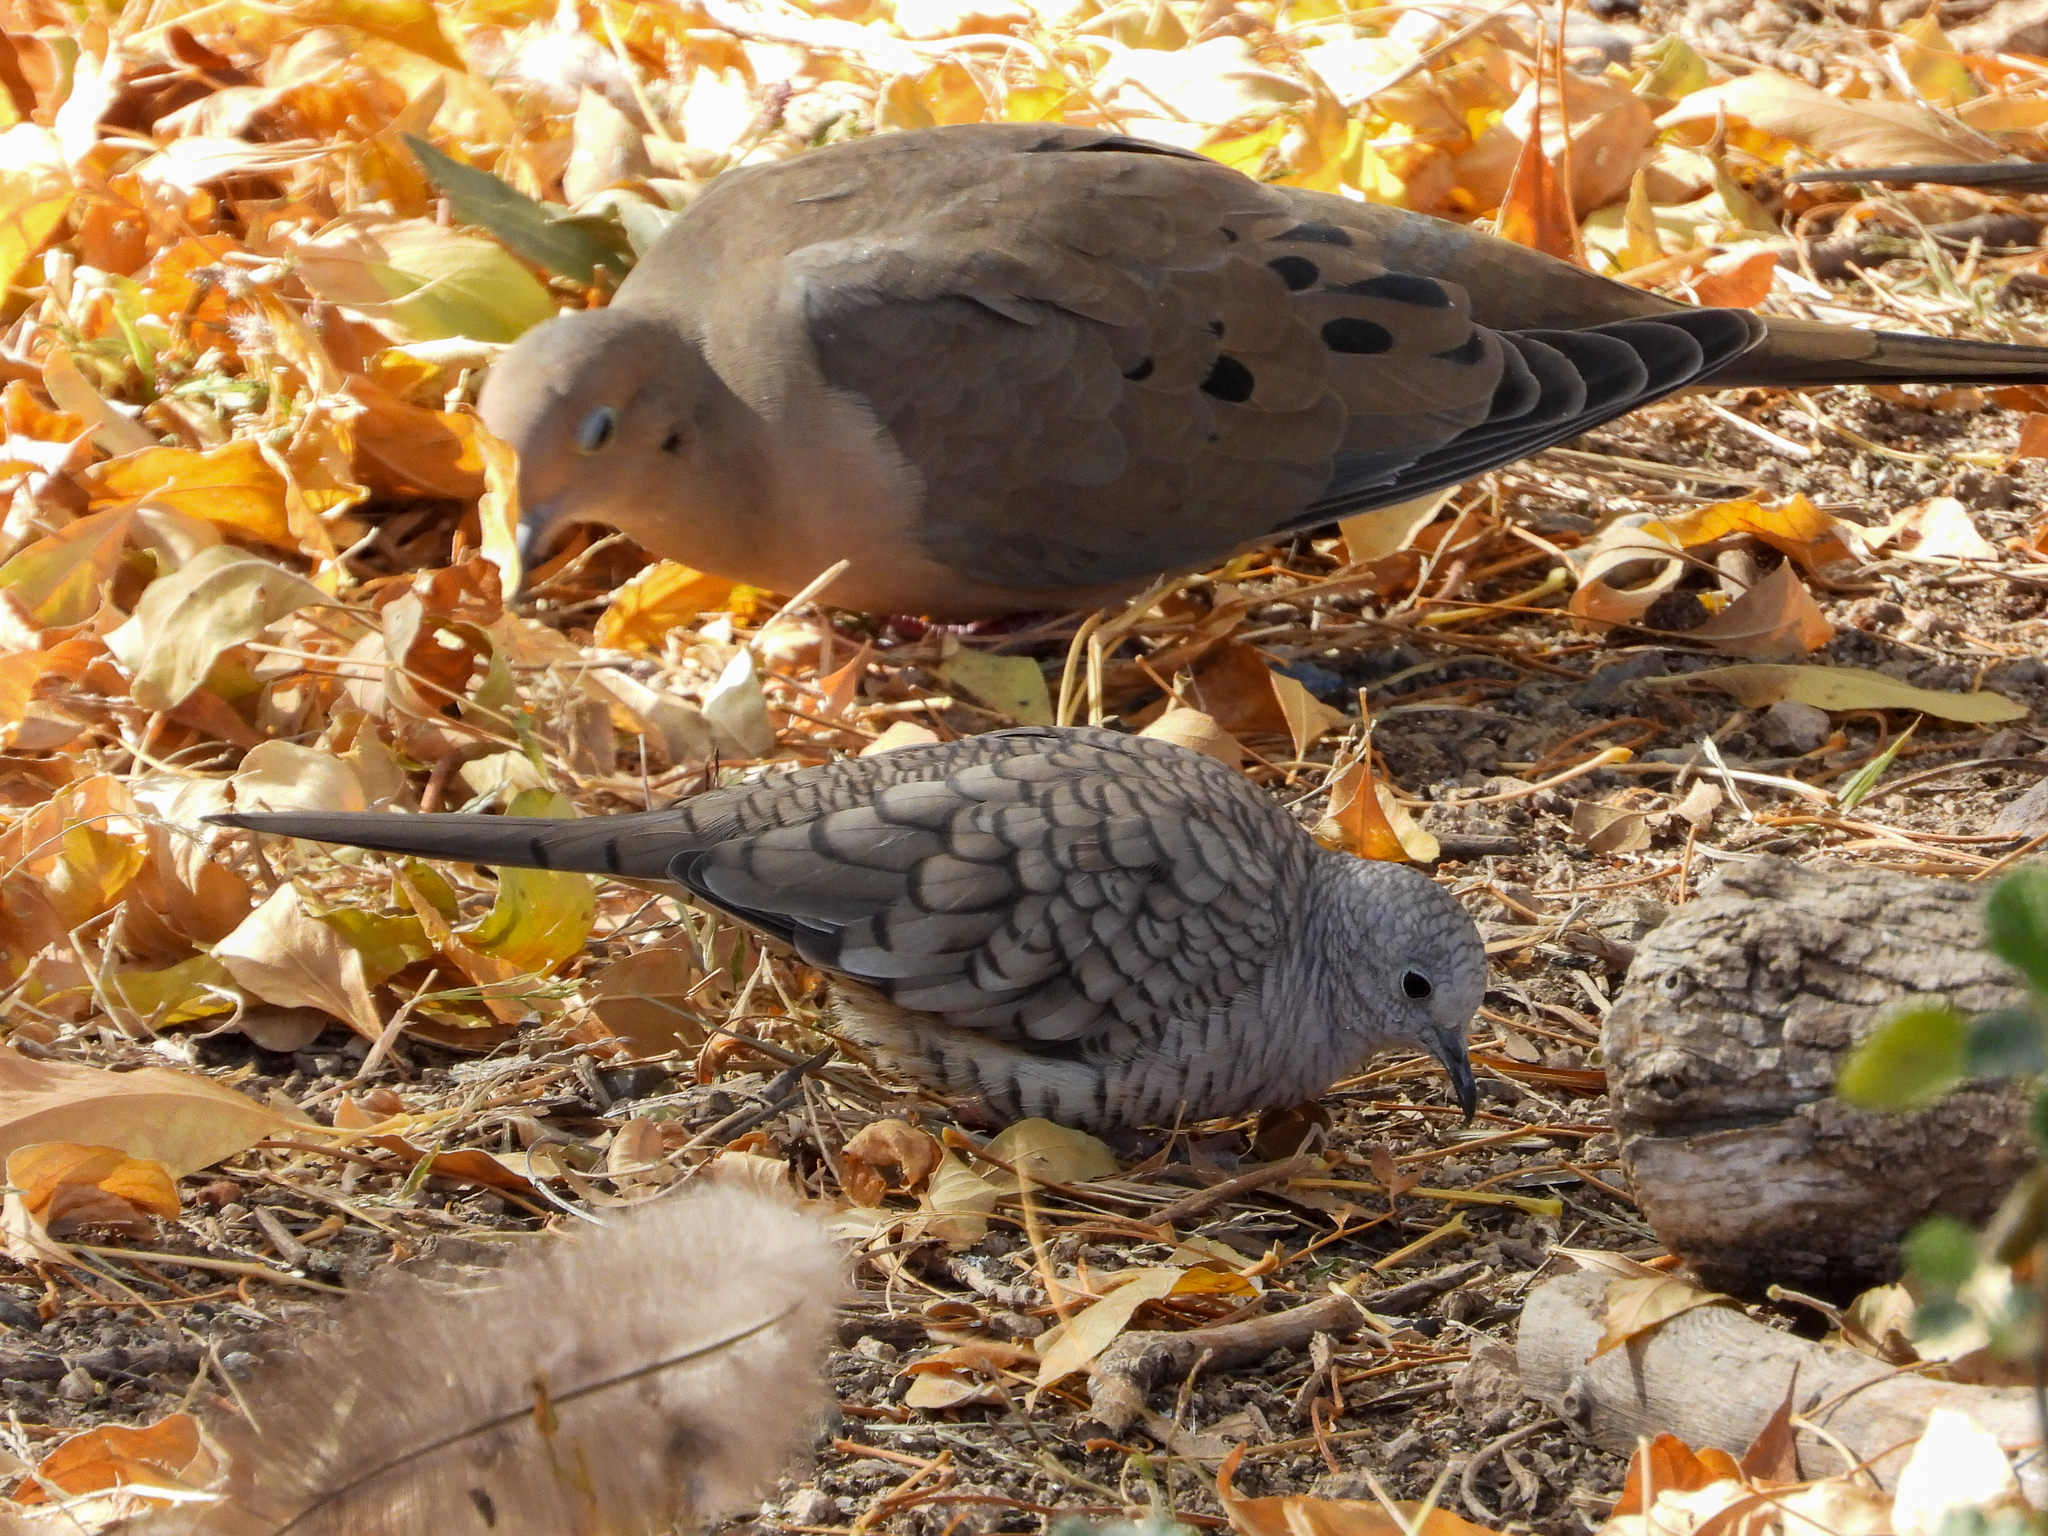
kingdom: Animalia
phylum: Chordata
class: Aves
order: Columbiformes
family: Columbidae
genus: Columbina
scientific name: Columbina inca
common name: Inca dove
